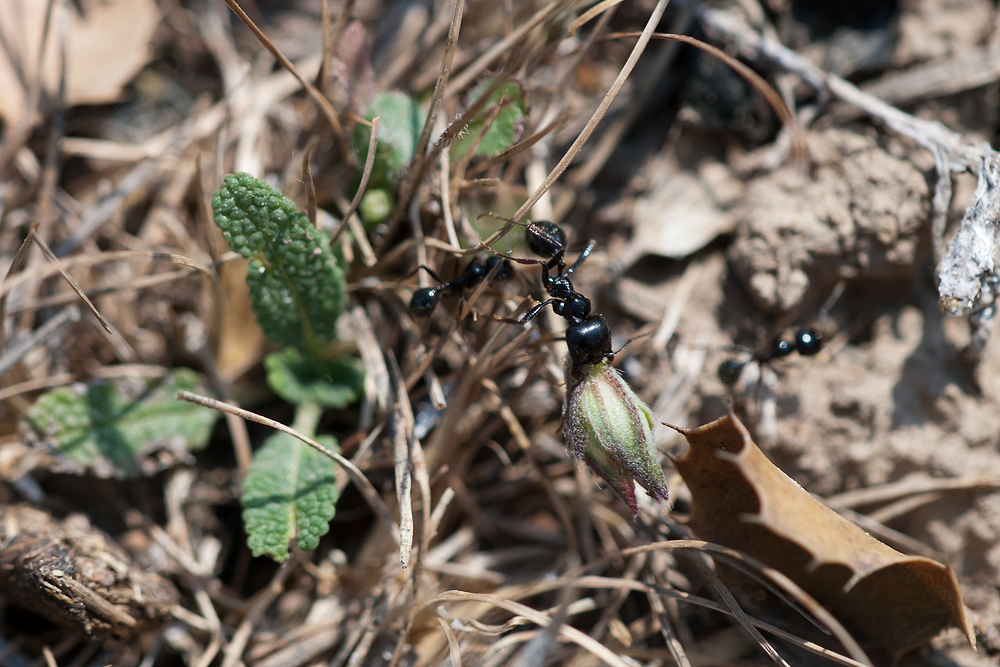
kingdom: Animalia
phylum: Arthropoda
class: Insecta
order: Hymenoptera
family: Formicidae
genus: Messor
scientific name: Messor barbarus
